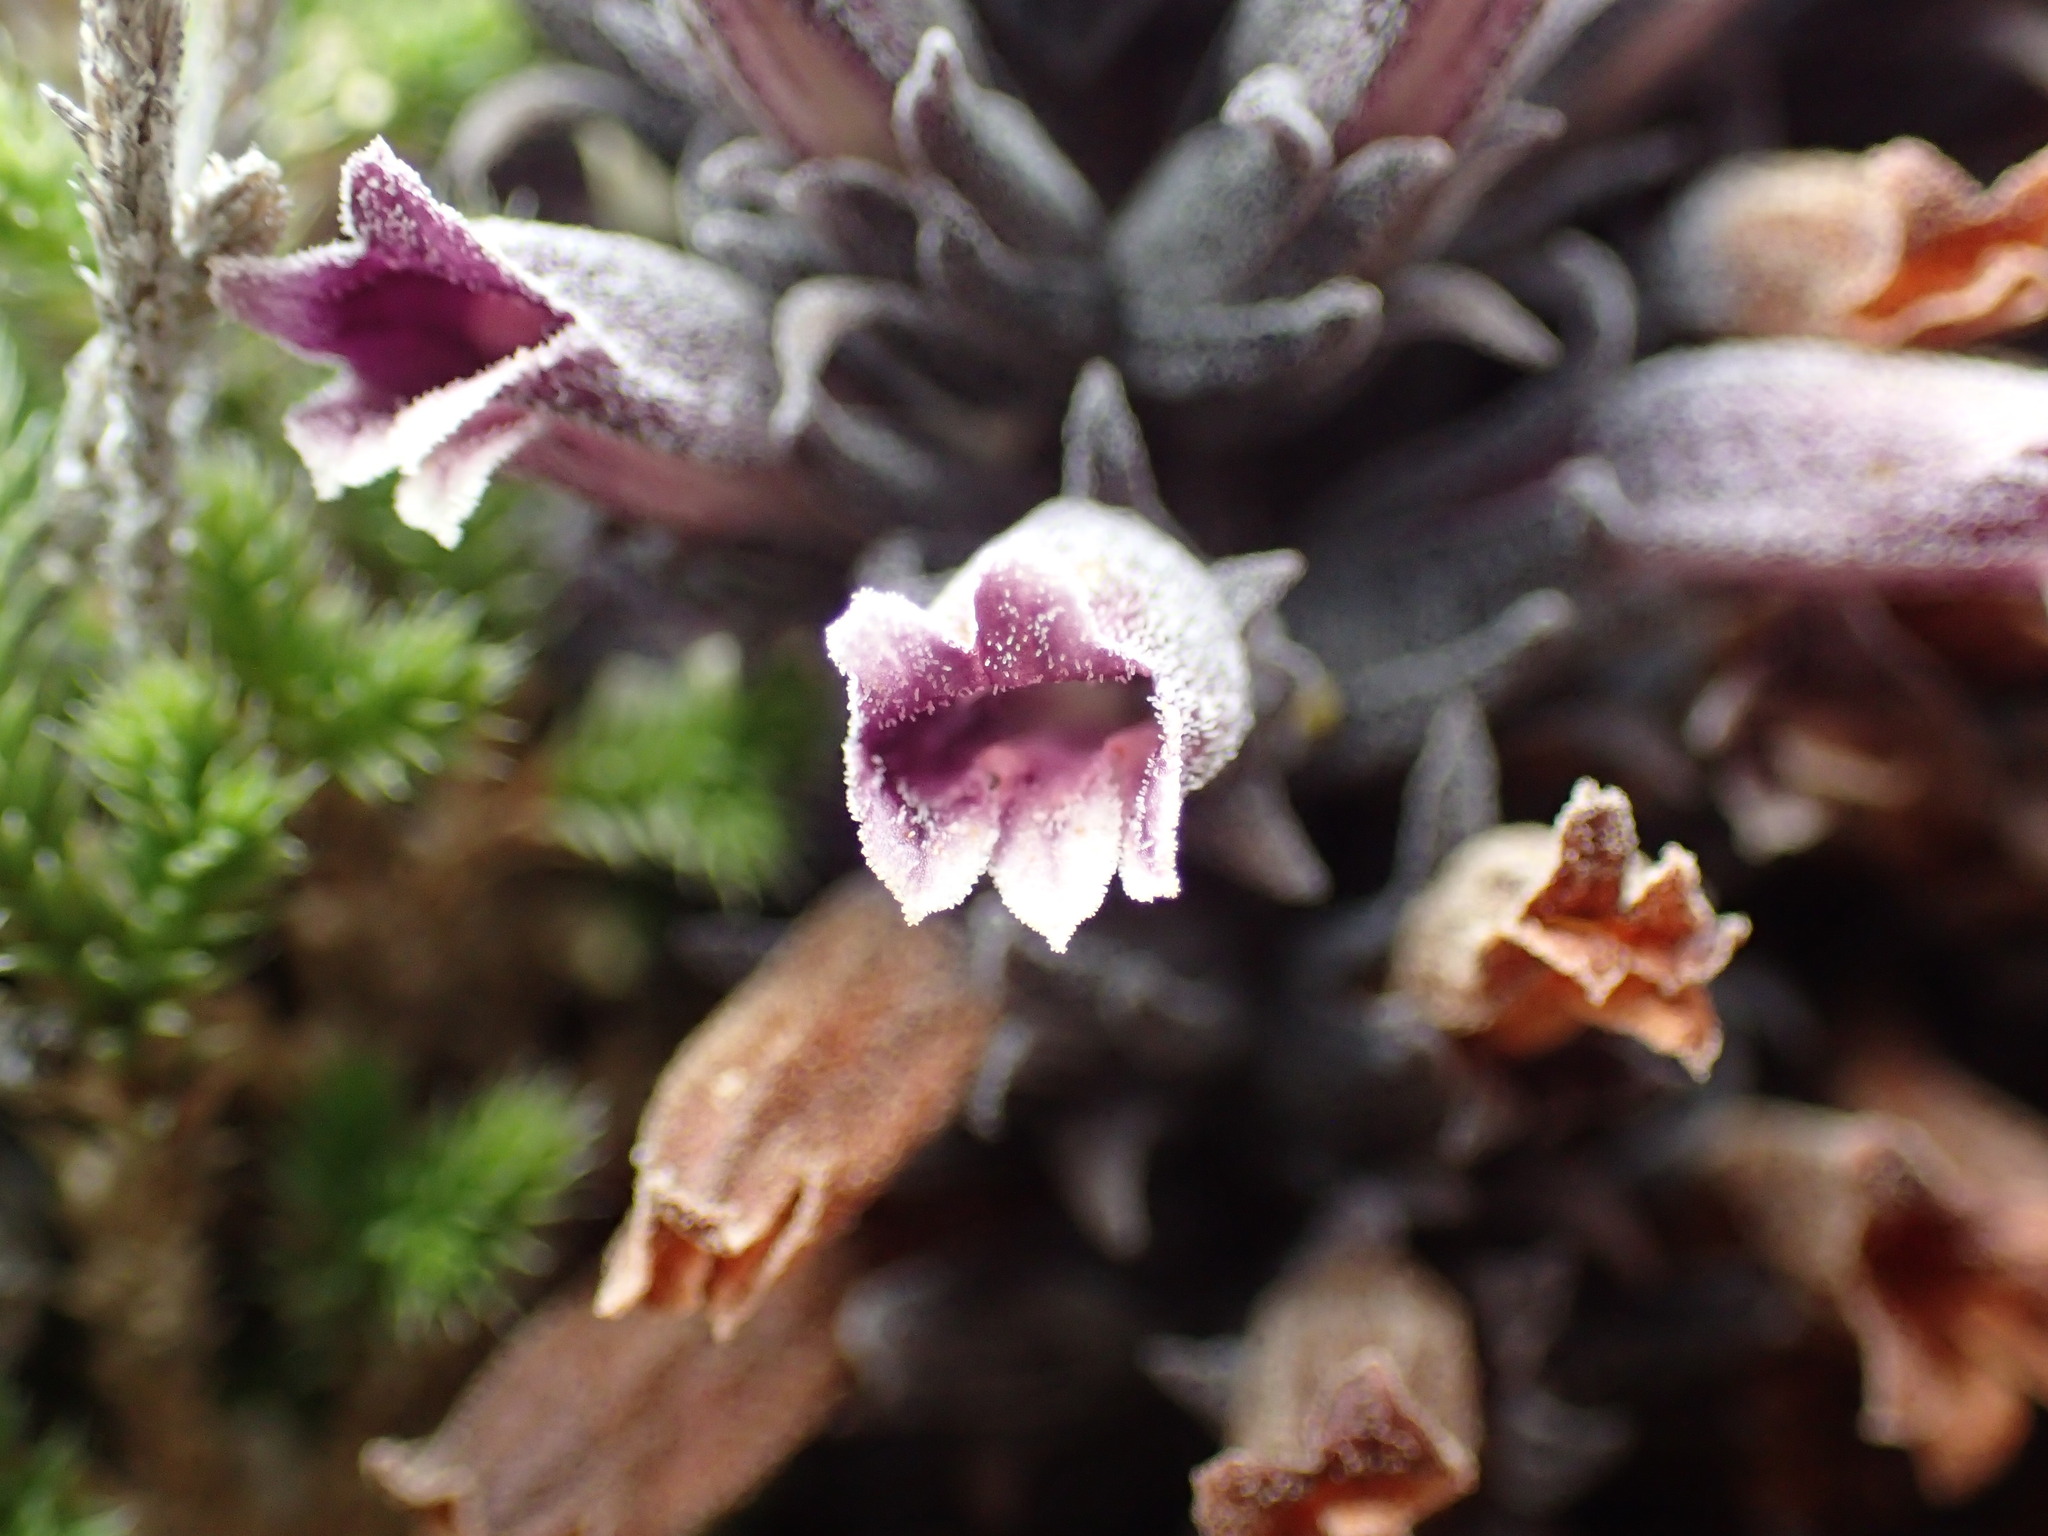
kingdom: Plantae
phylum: Tracheophyta
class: Magnoliopsida
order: Lamiales
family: Orobanchaceae
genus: Aphyllon
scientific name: Aphyllon tuberosum
